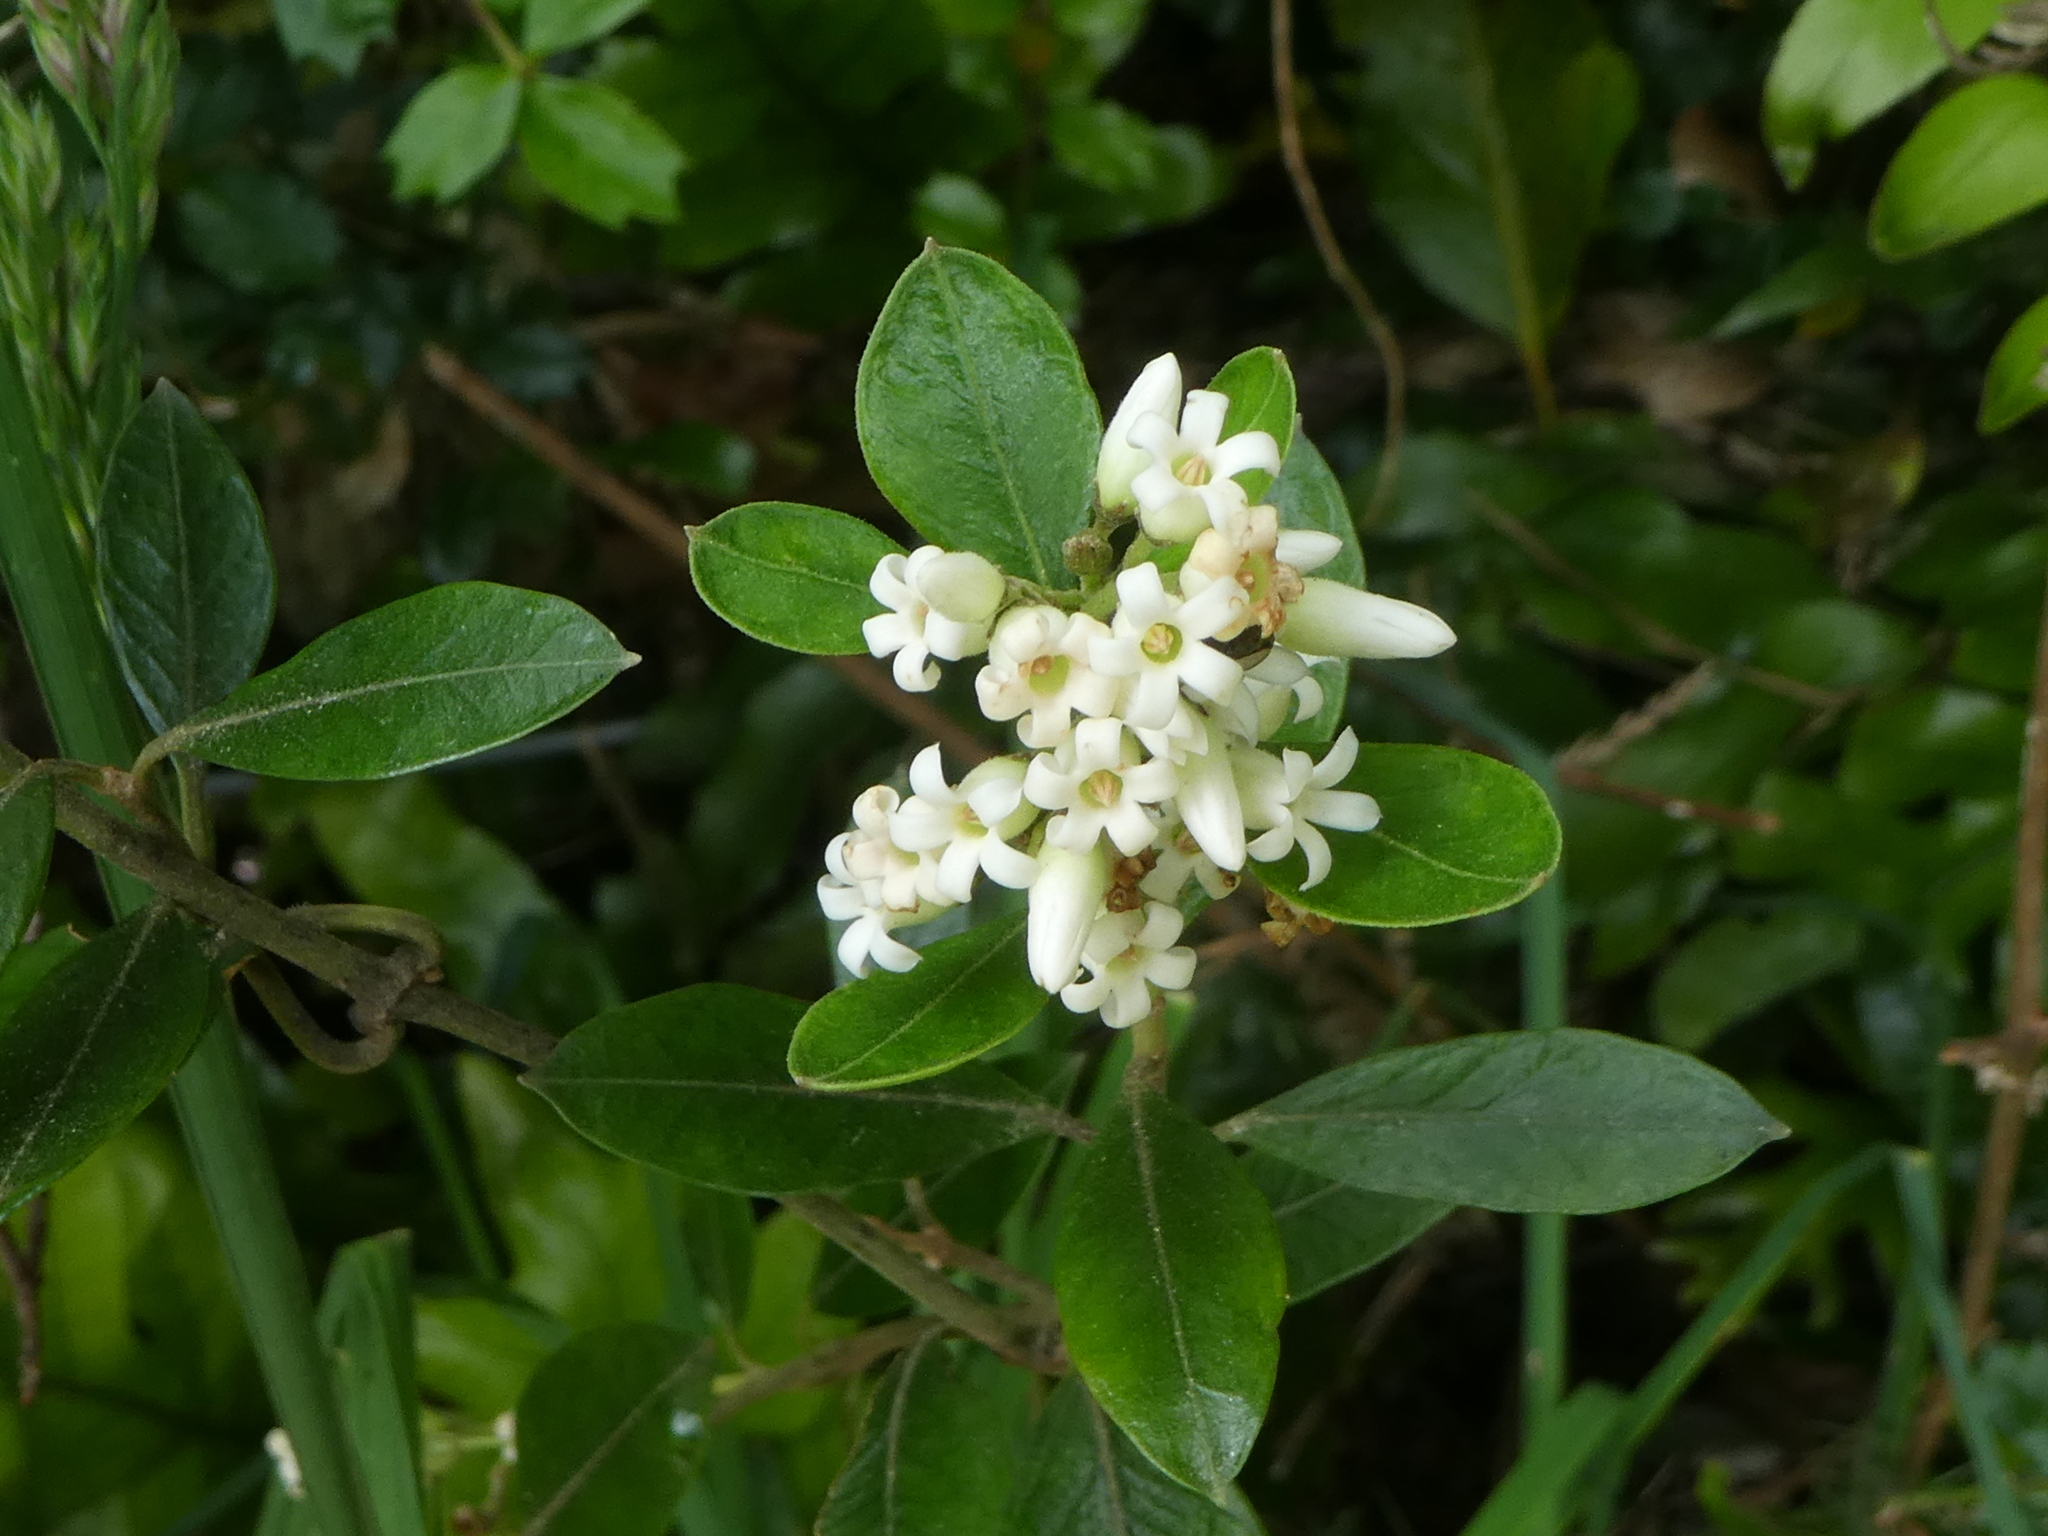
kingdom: Plantae
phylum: Tracheophyta
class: Magnoliopsida
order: Gentianales
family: Apocynaceae
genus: Parsonsia
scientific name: Parsonsia heterophylla
